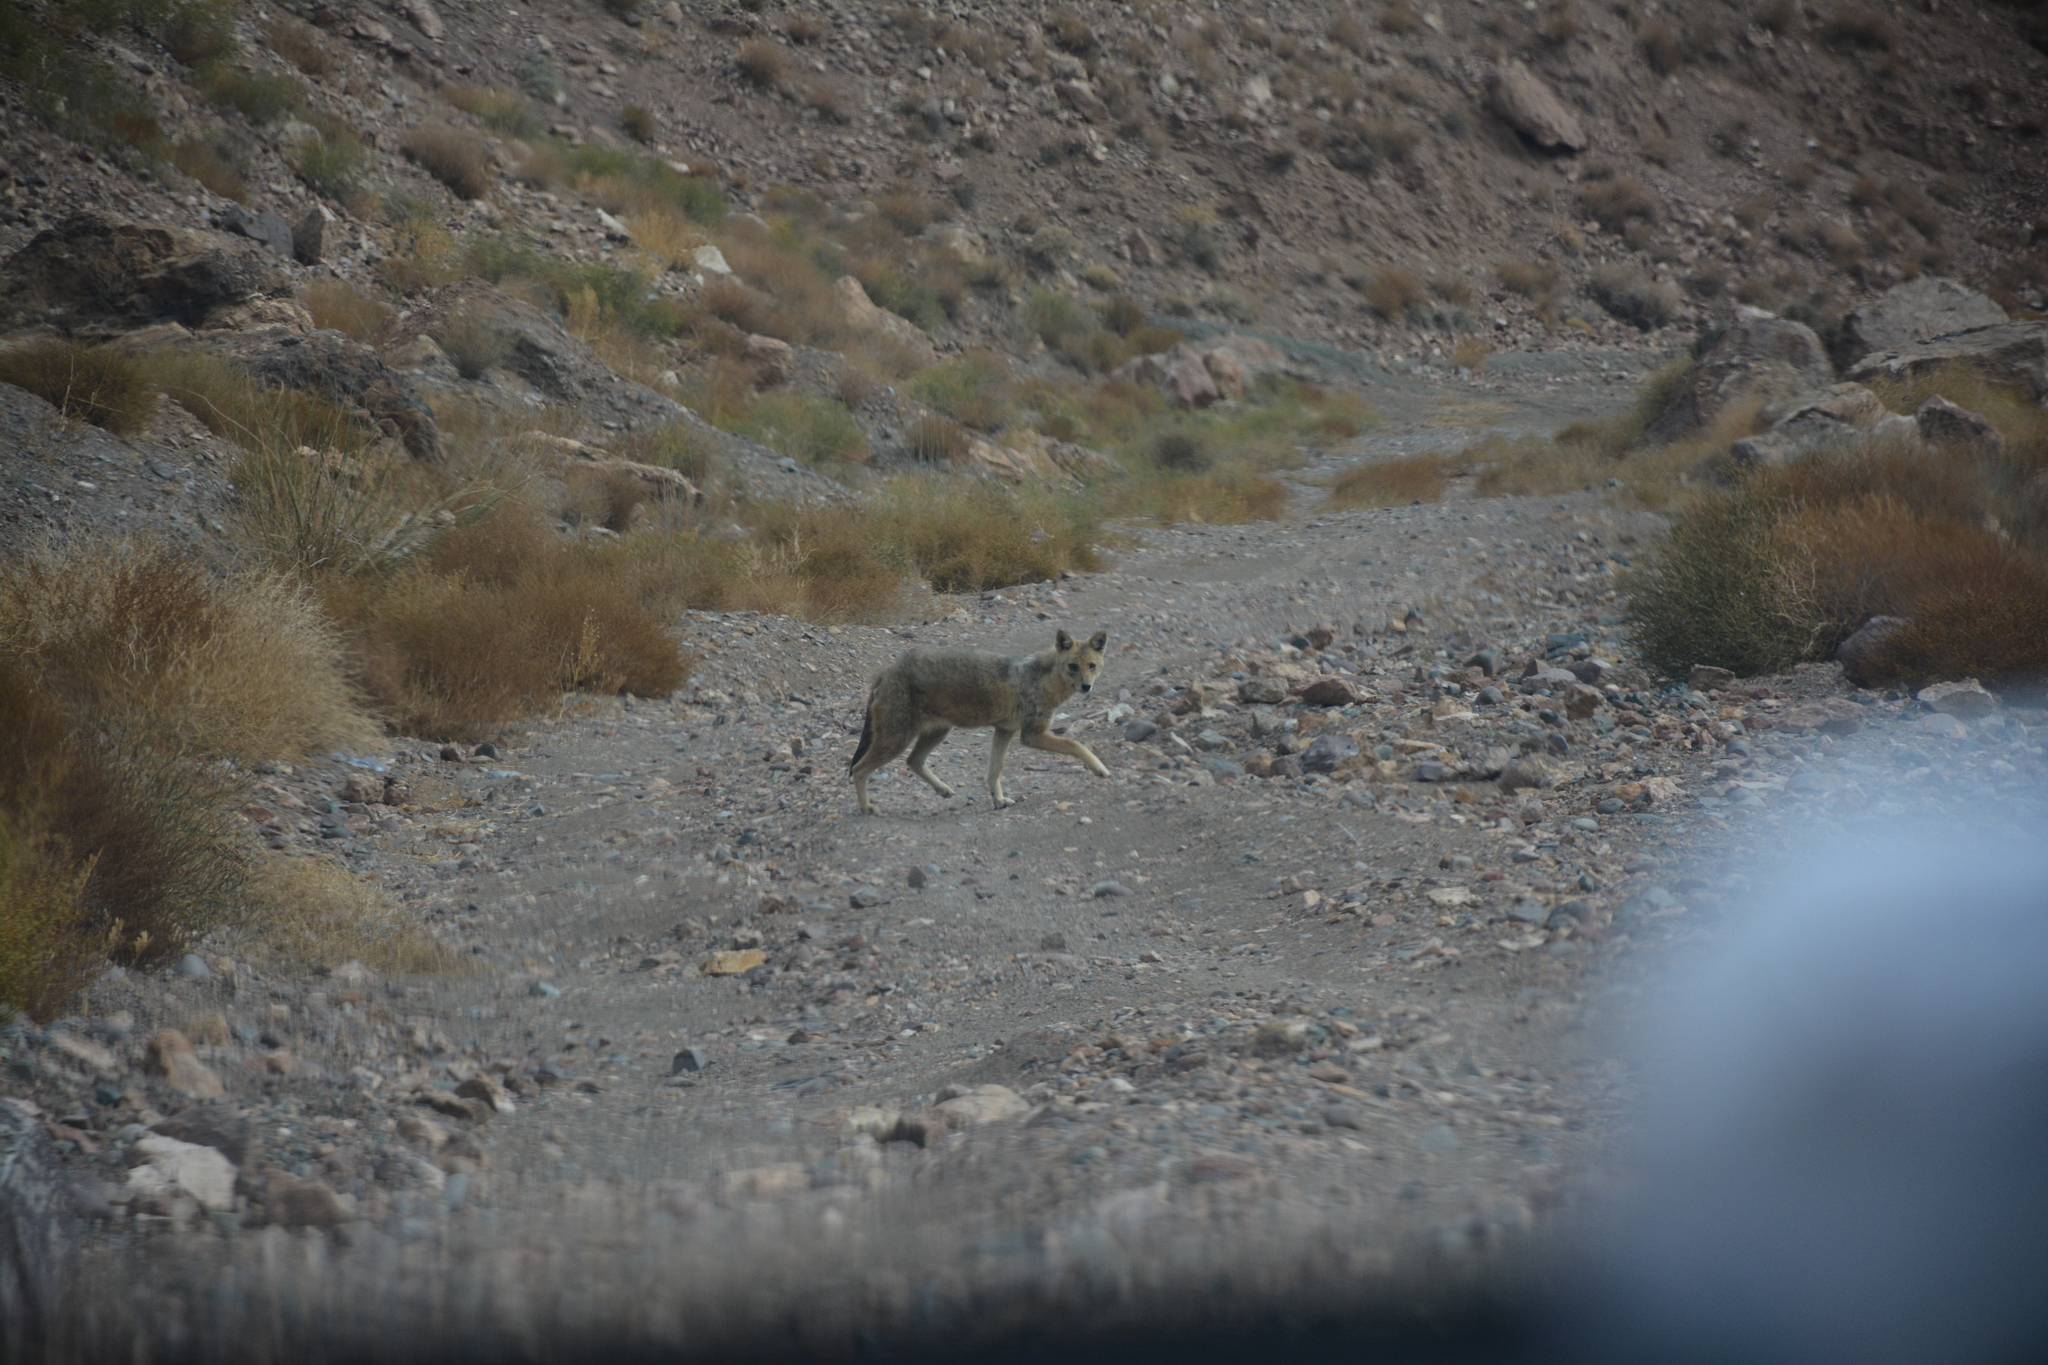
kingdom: Animalia
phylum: Chordata
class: Mammalia
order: Carnivora
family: Canidae
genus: Canis
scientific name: Canis aureus
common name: Golden jackal
